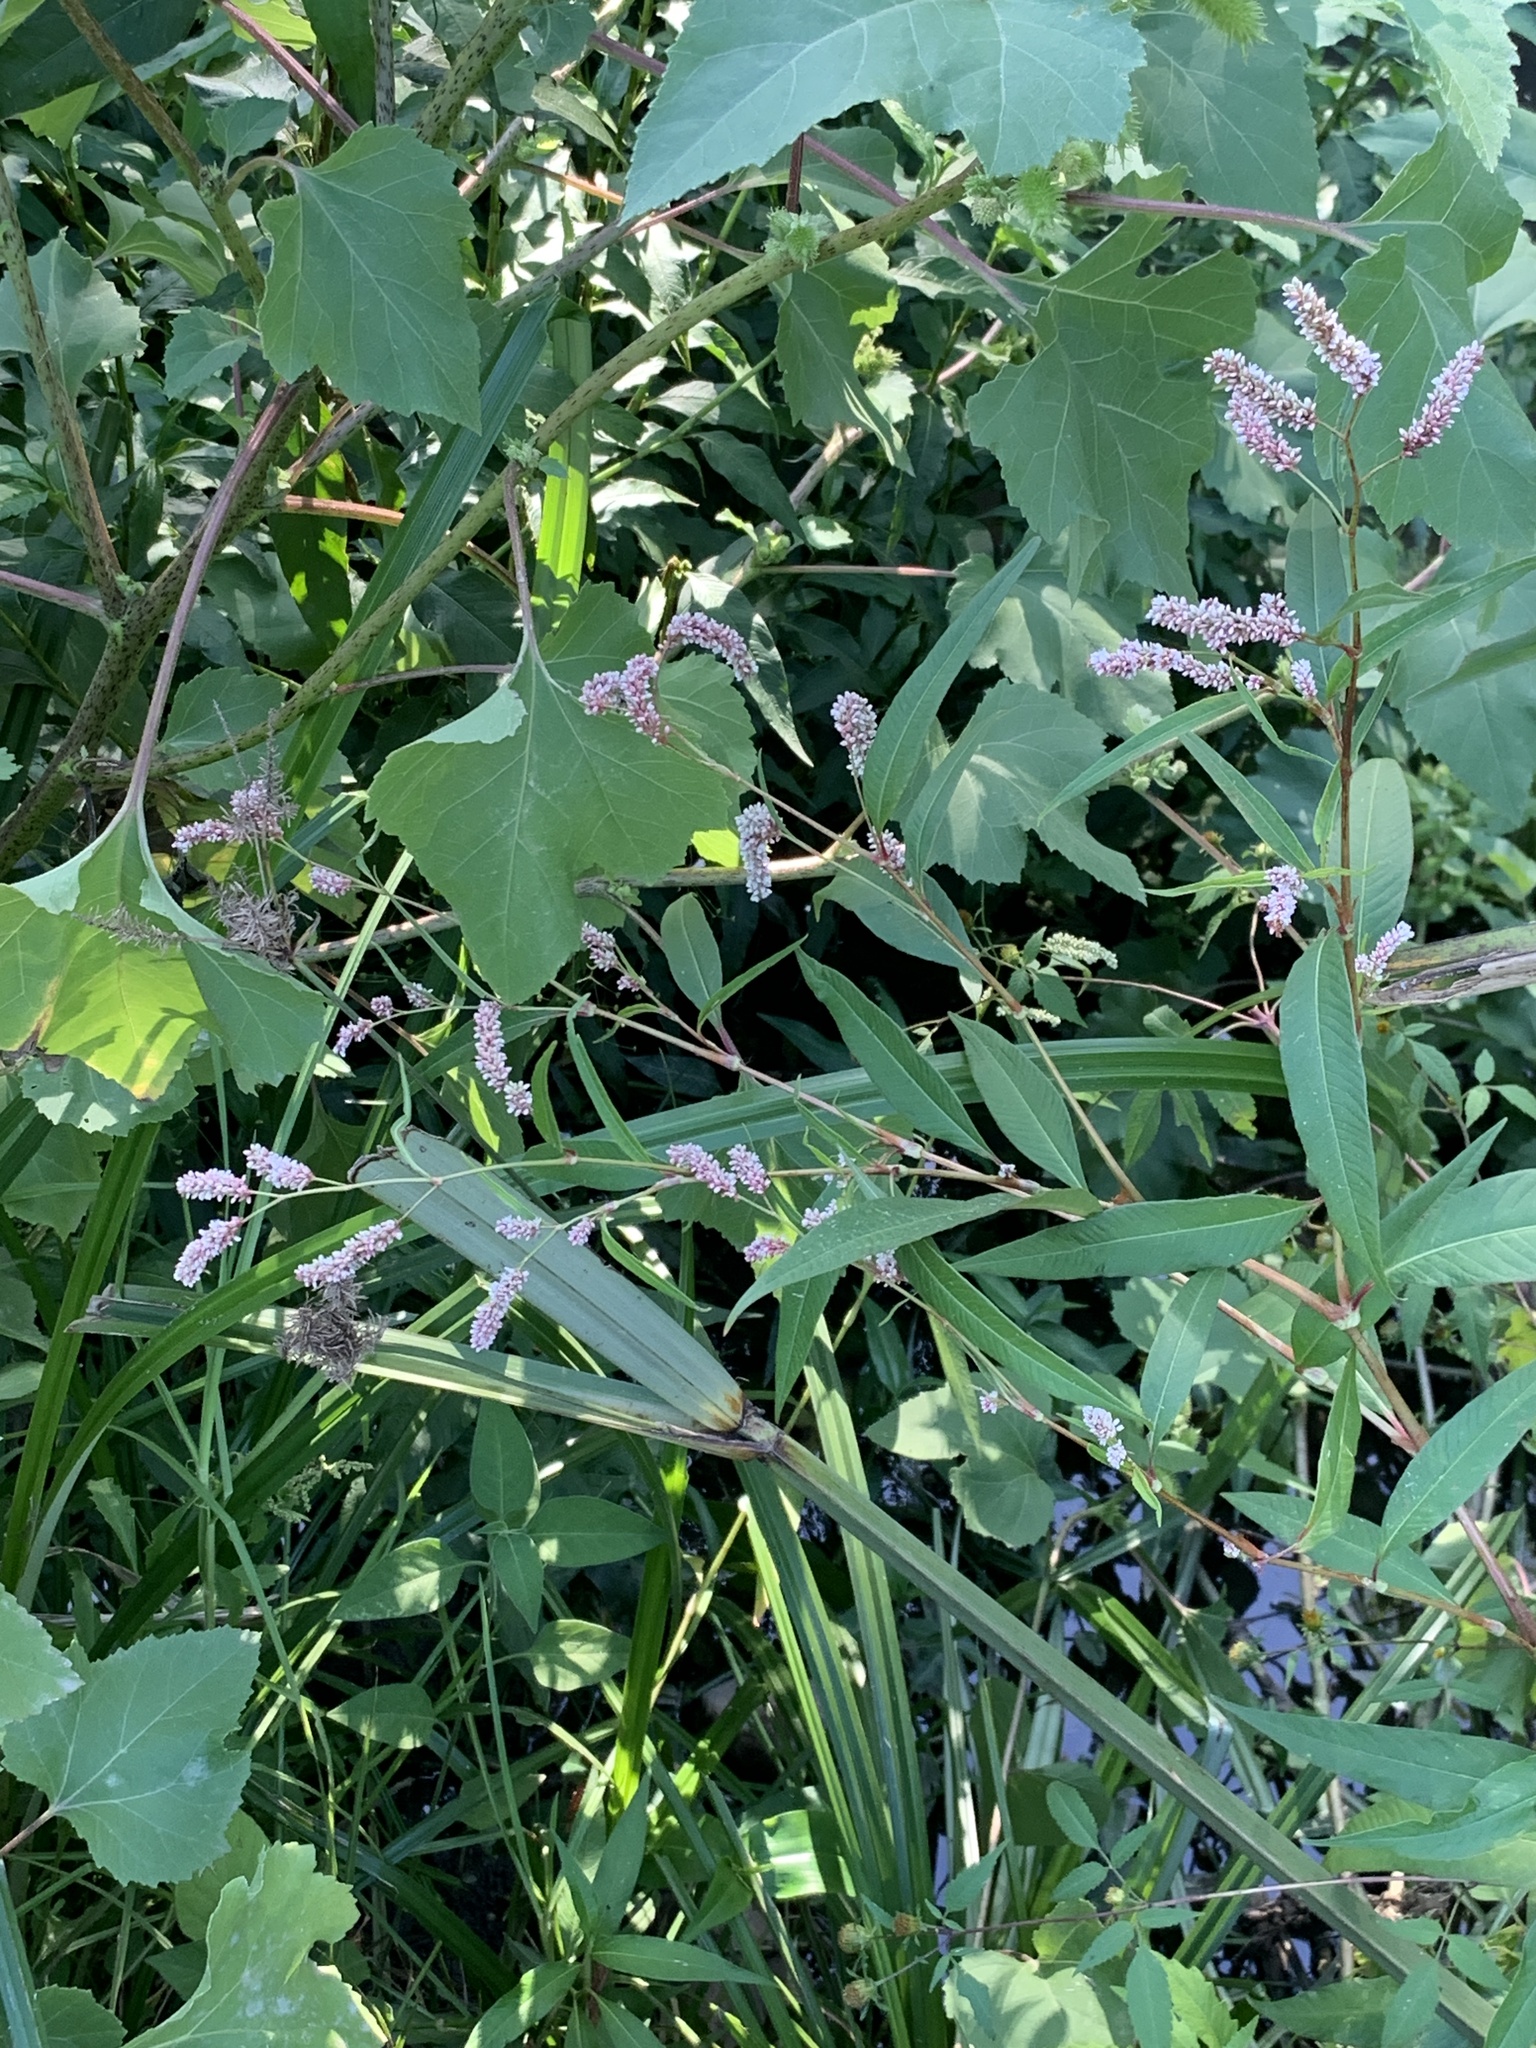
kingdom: Plantae
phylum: Tracheophyta
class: Magnoliopsida
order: Caryophyllales
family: Polygonaceae
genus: Persicaria
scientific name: Persicaria madagascariensis
